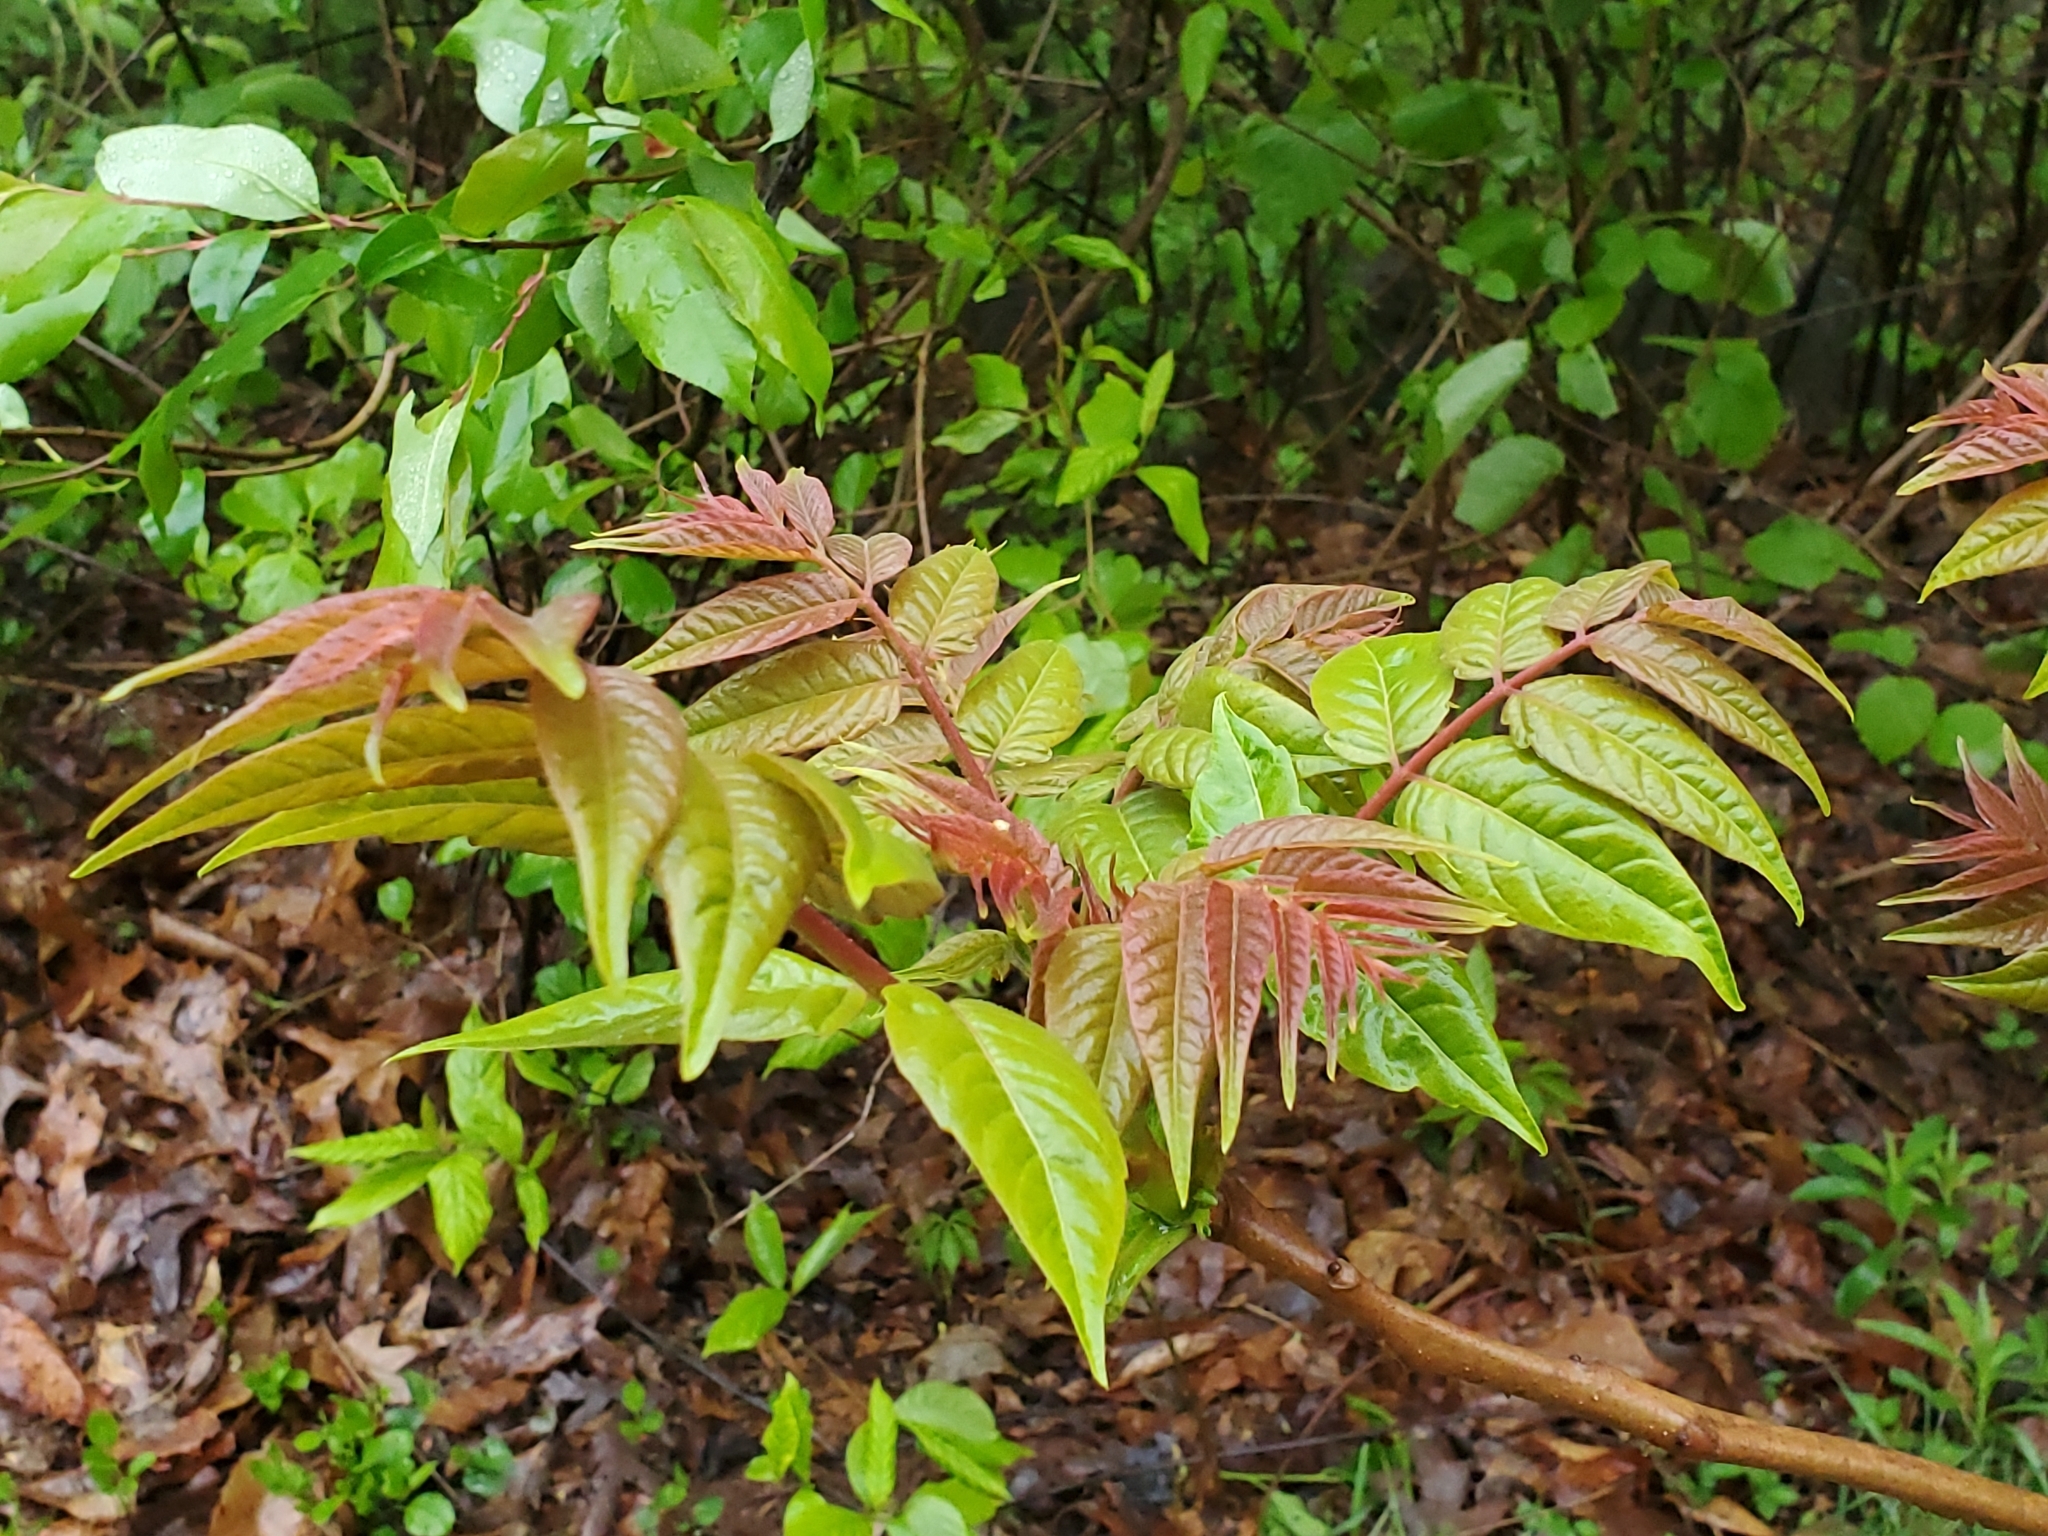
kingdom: Plantae
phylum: Tracheophyta
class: Magnoliopsida
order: Sapindales
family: Simaroubaceae
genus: Ailanthus
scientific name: Ailanthus altissima
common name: Tree-of-heaven
